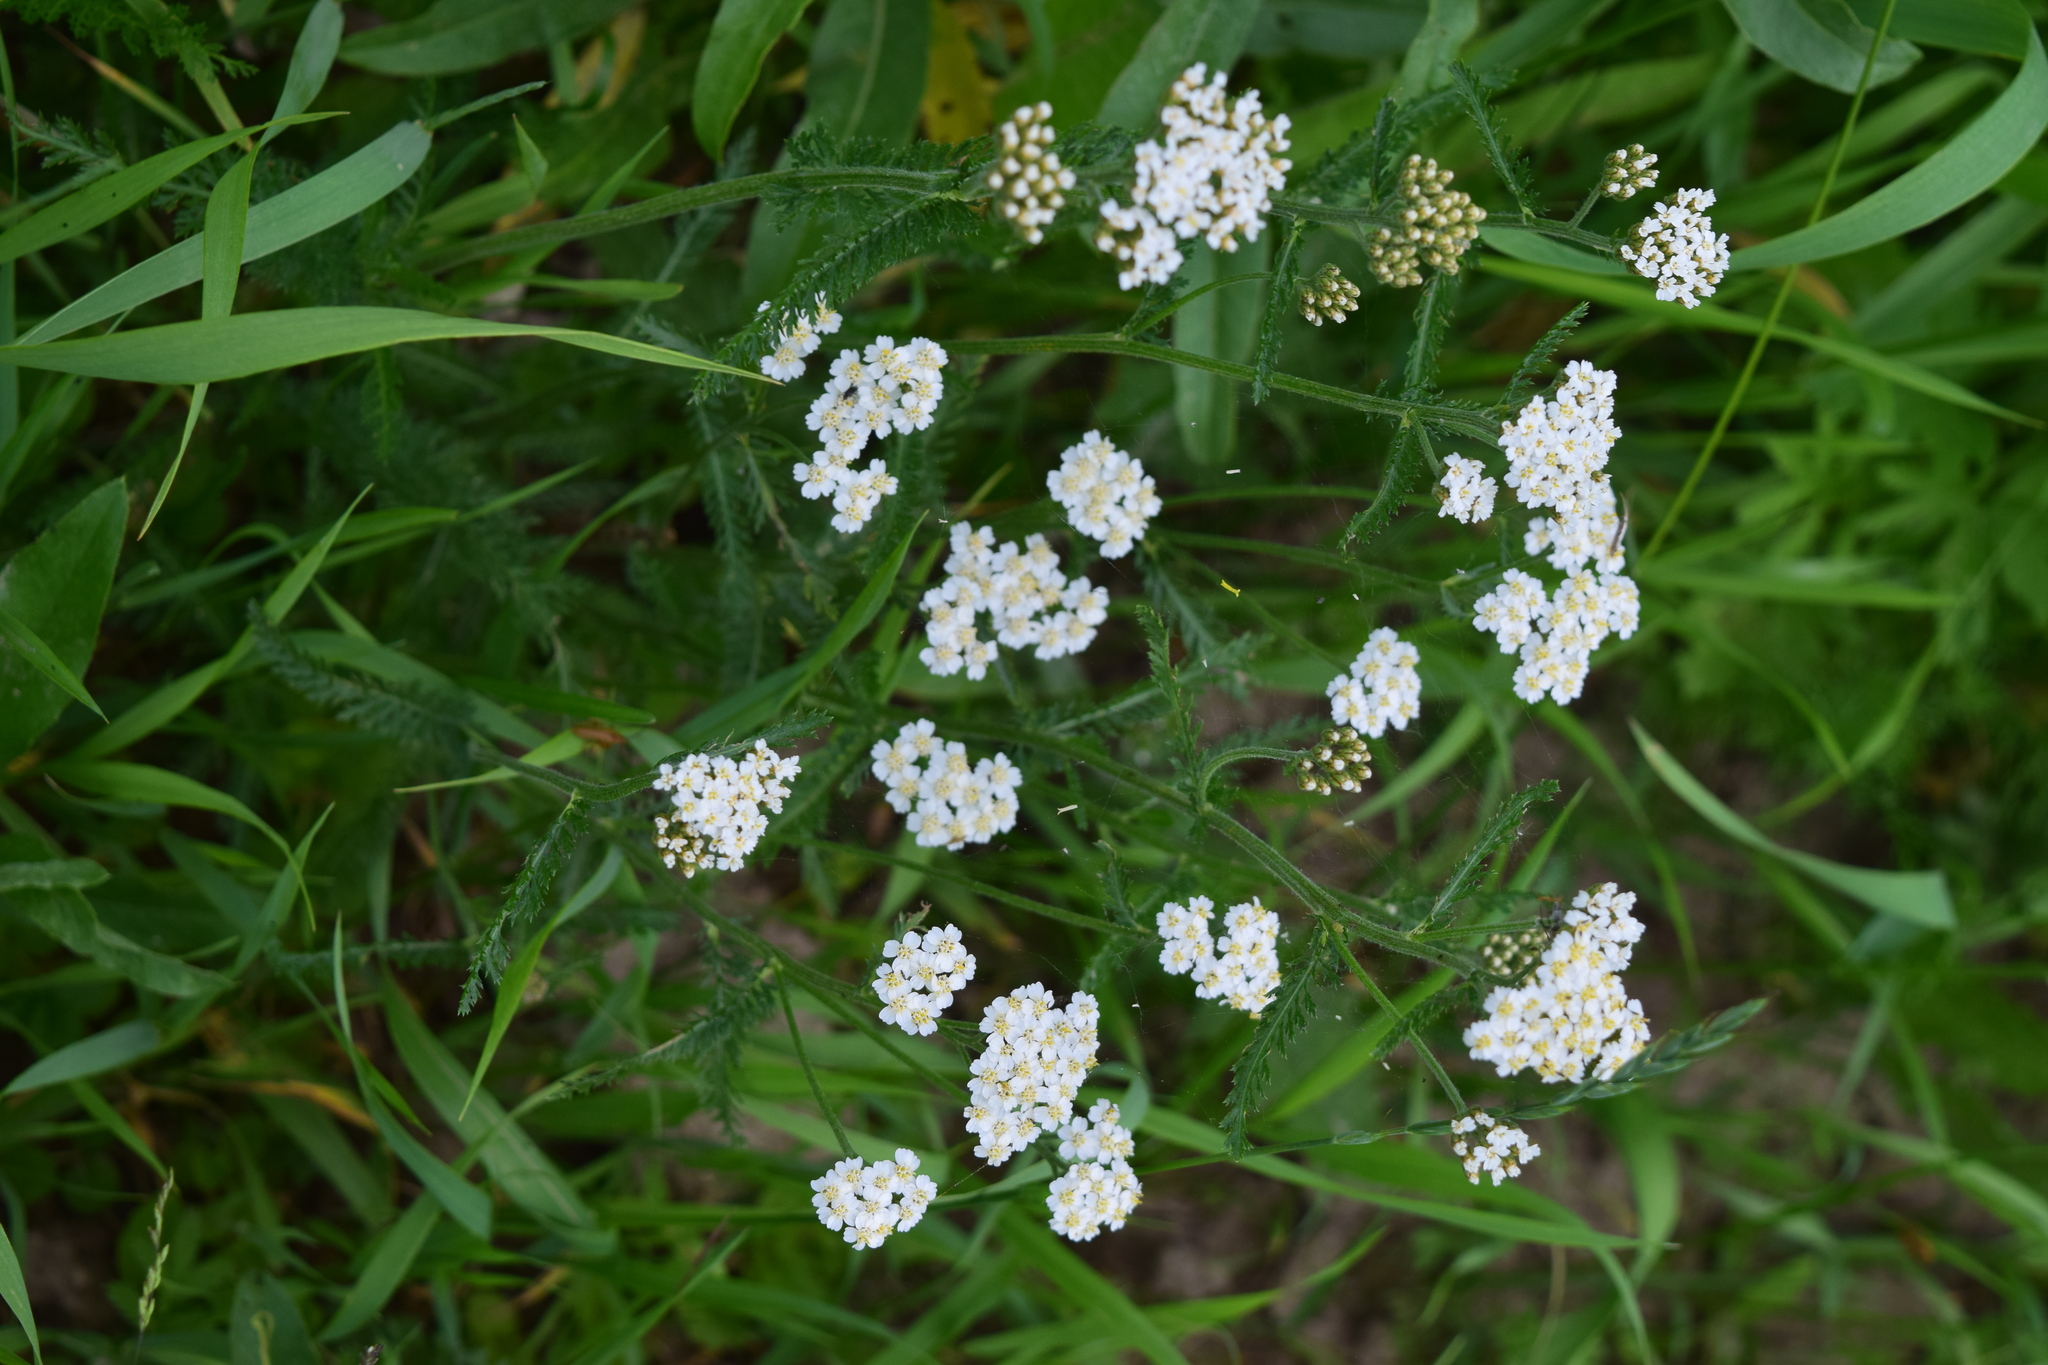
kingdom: Plantae
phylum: Tracheophyta
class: Magnoliopsida
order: Asterales
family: Asteraceae
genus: Achillea
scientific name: Achillea millefolium
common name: Yarrow
